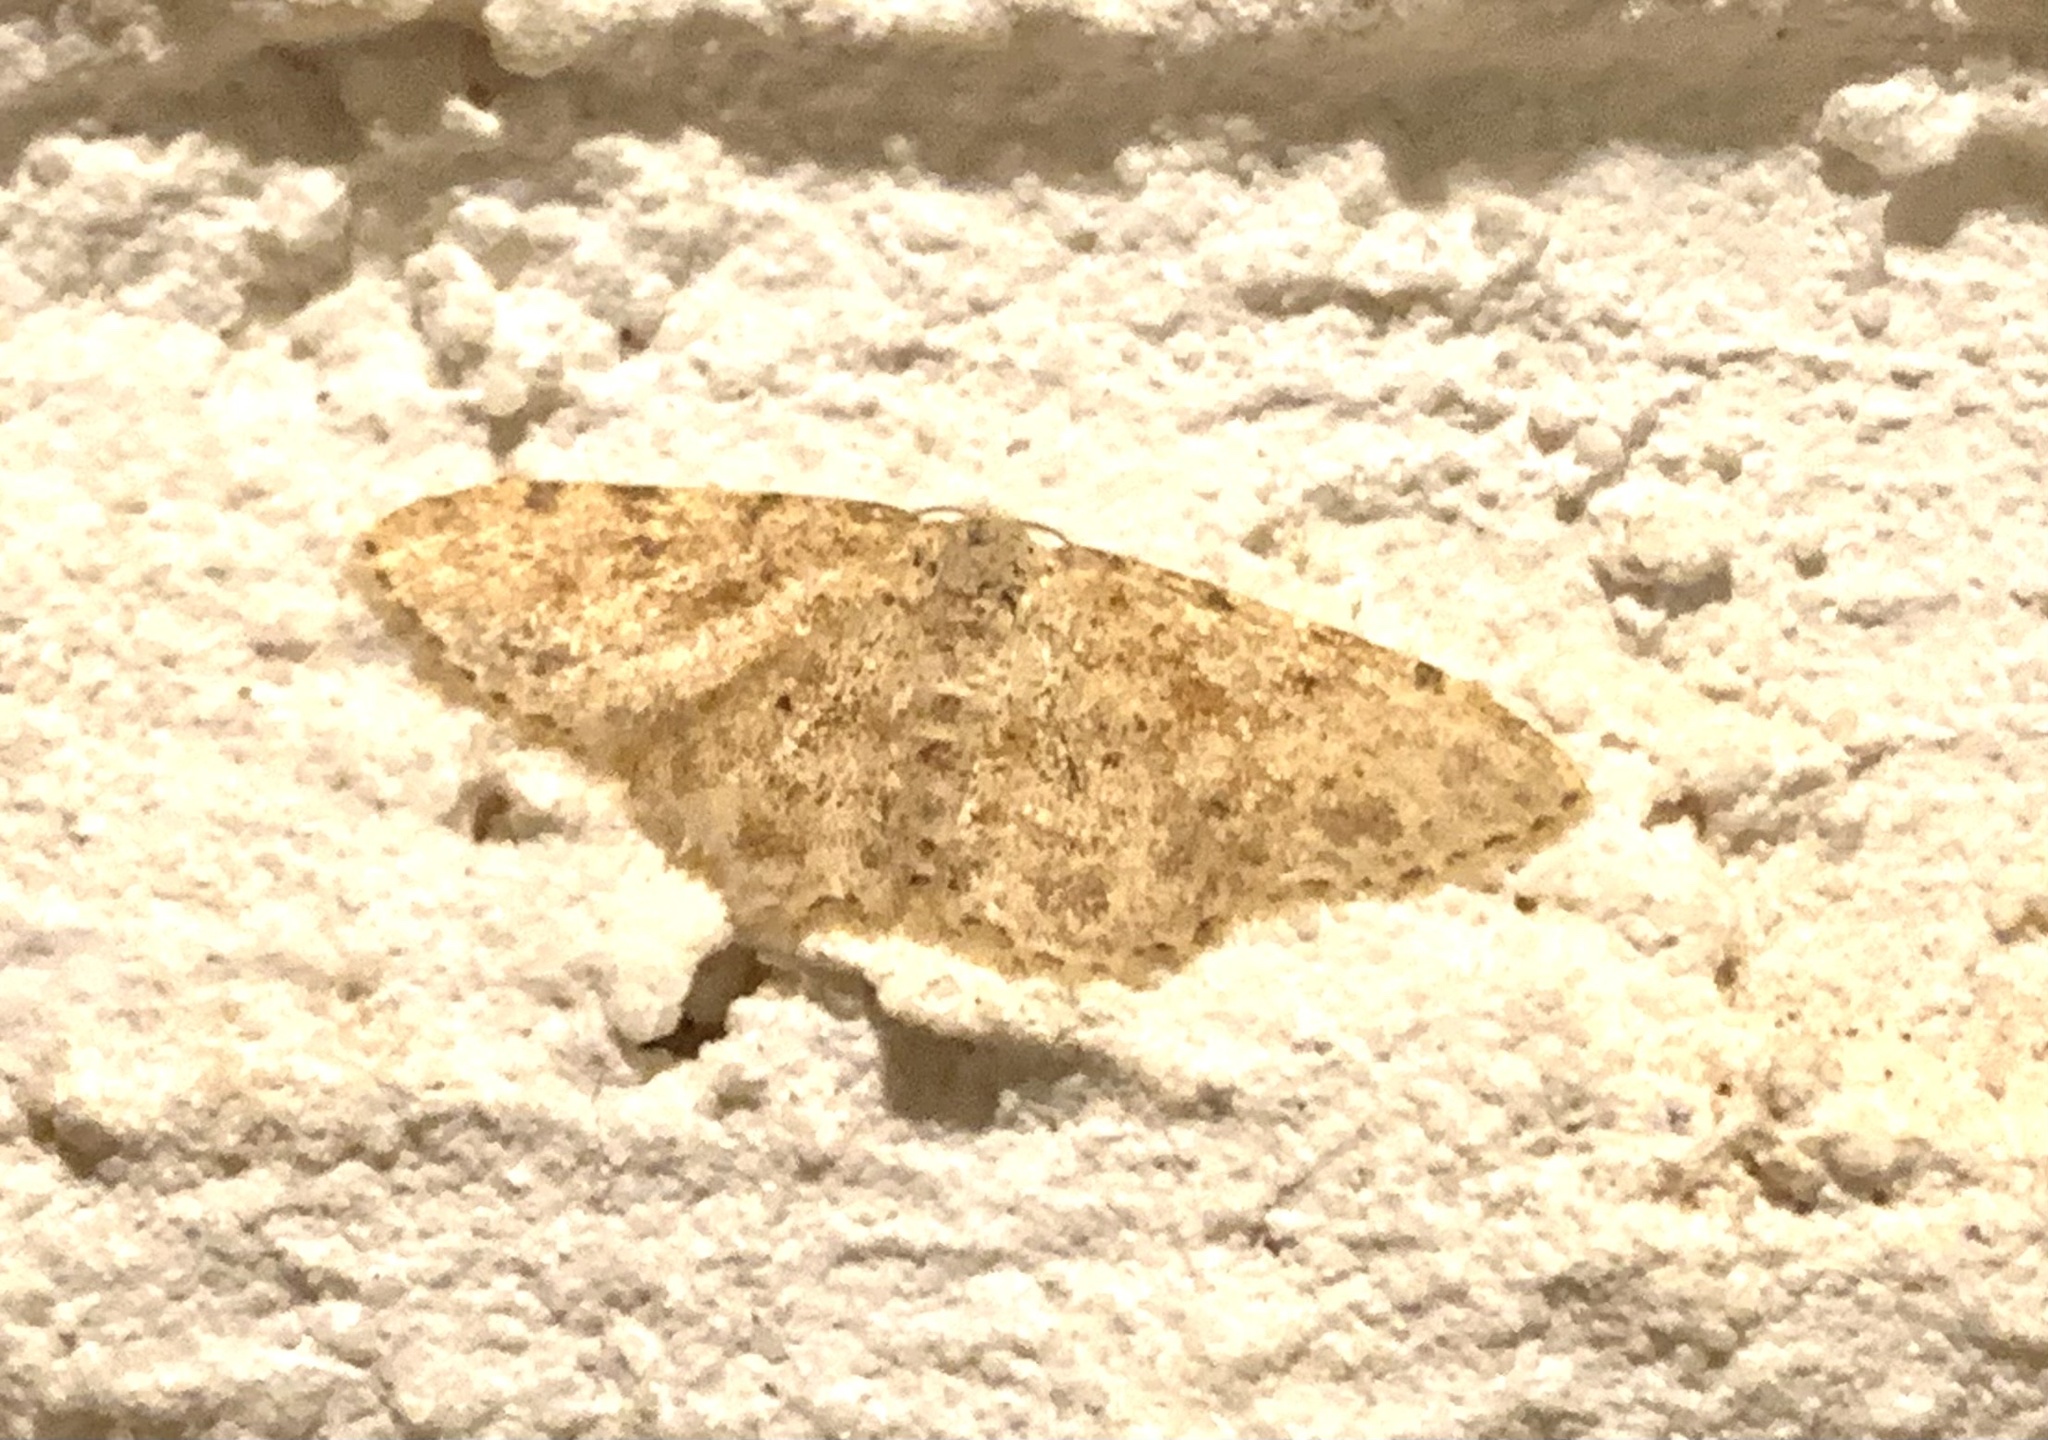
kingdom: Animalia
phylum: Arthropoda
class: Insecta
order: Lepidoptera
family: Geometridae
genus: Scopula
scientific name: Scopula luridata
